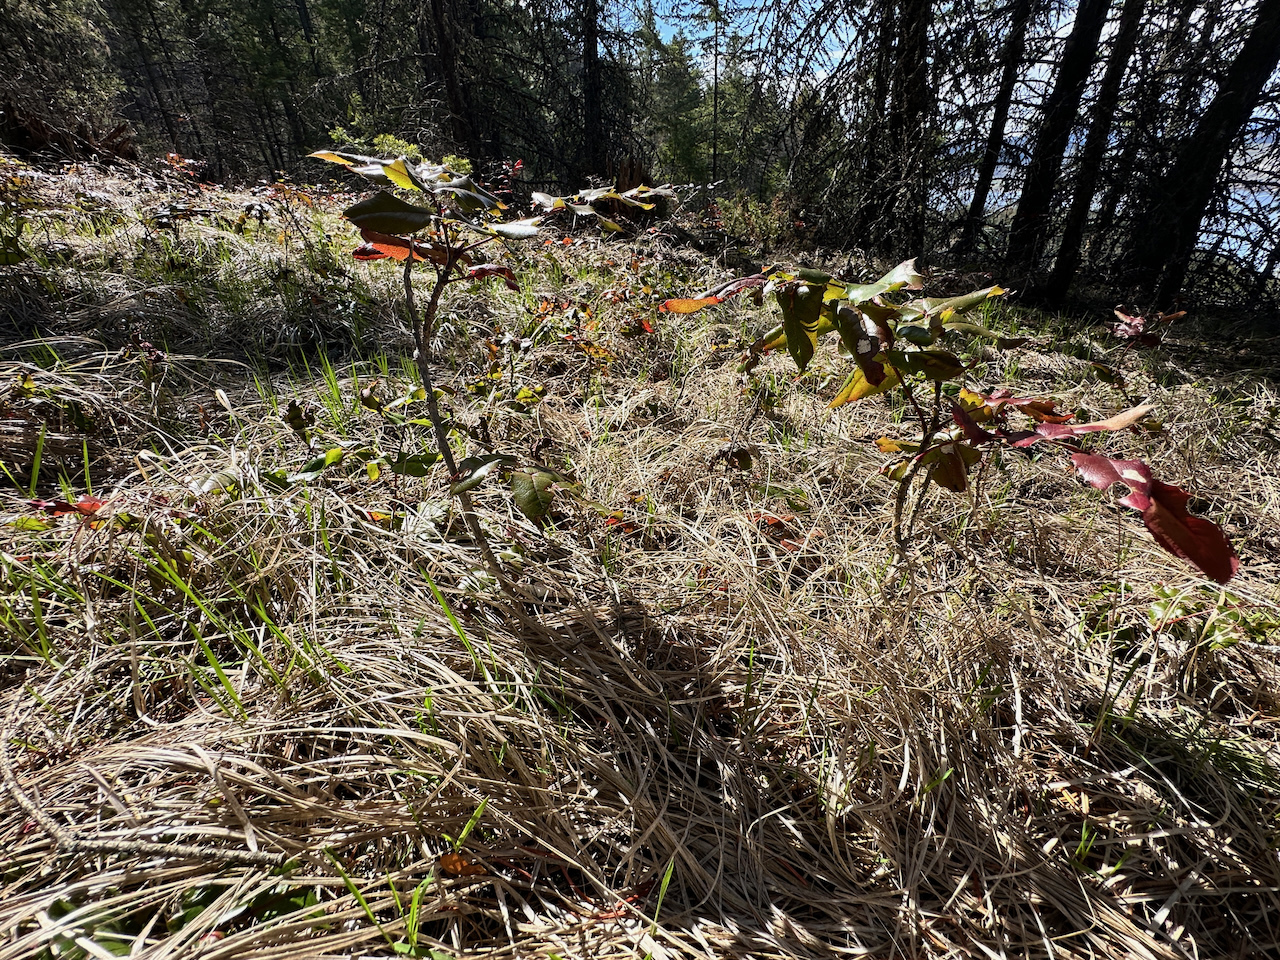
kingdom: Plantae
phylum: Tracheophyta
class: Magnoliopsida
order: Ranunculales
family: Berberidaceae
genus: Mahonia
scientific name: Mahonia aquifolium
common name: Oregon-grape
